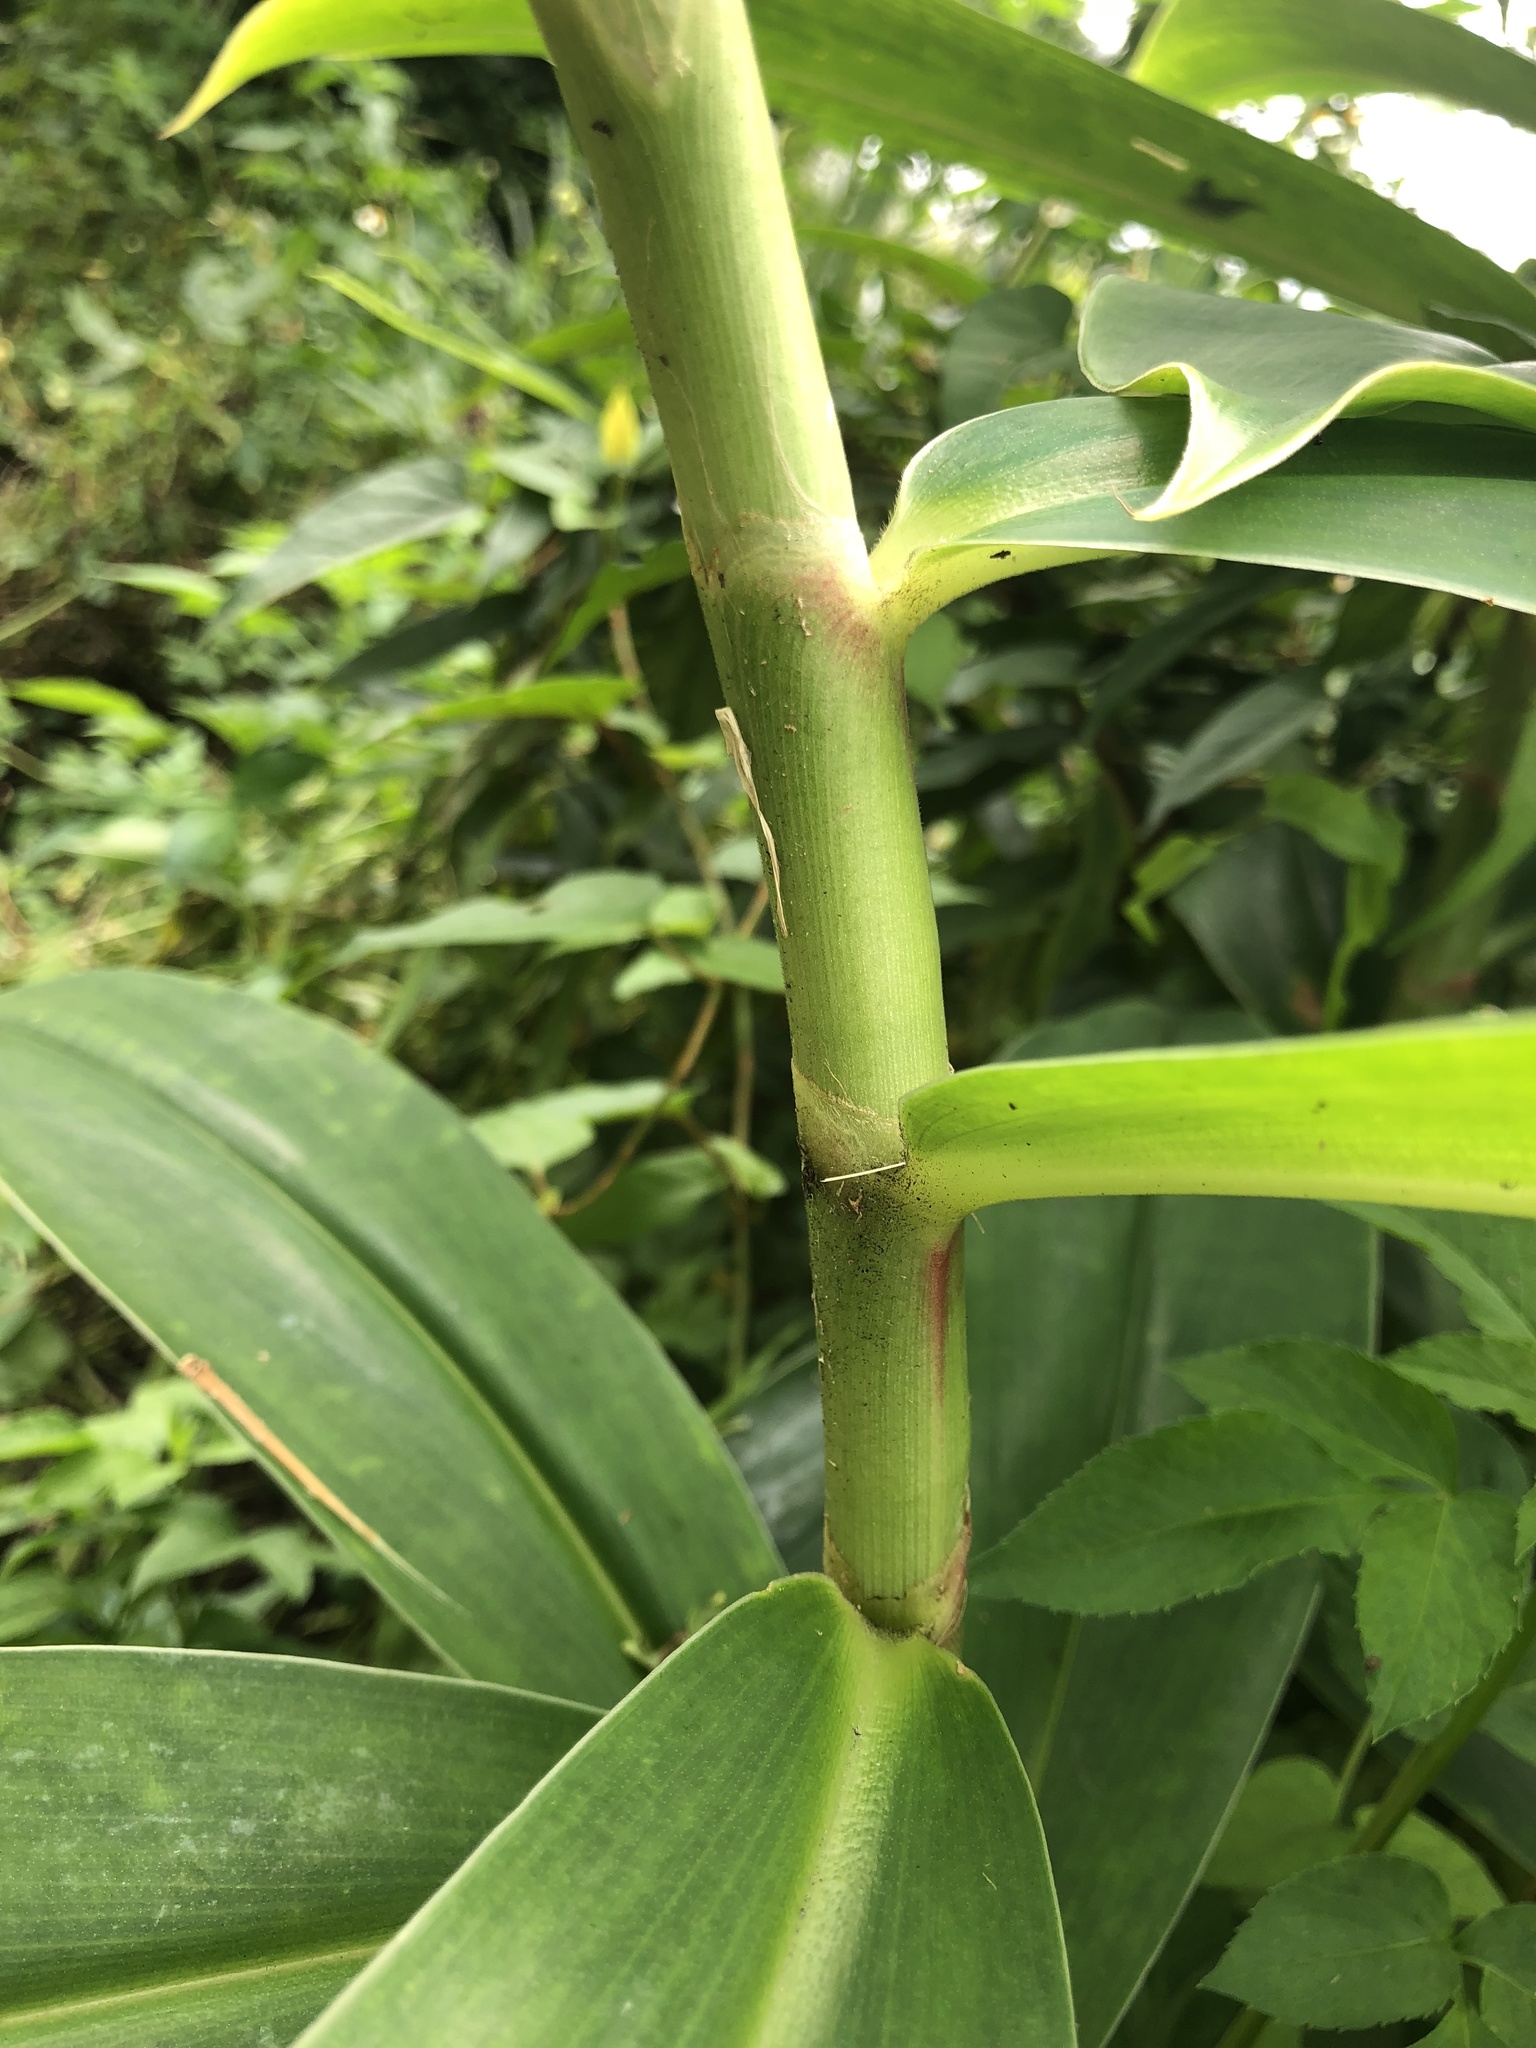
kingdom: Plantae
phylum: Tracheophyta
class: Liliopsida
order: Zingiberales
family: Costaceae
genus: Hellenia
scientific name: Hellenia speciosa
